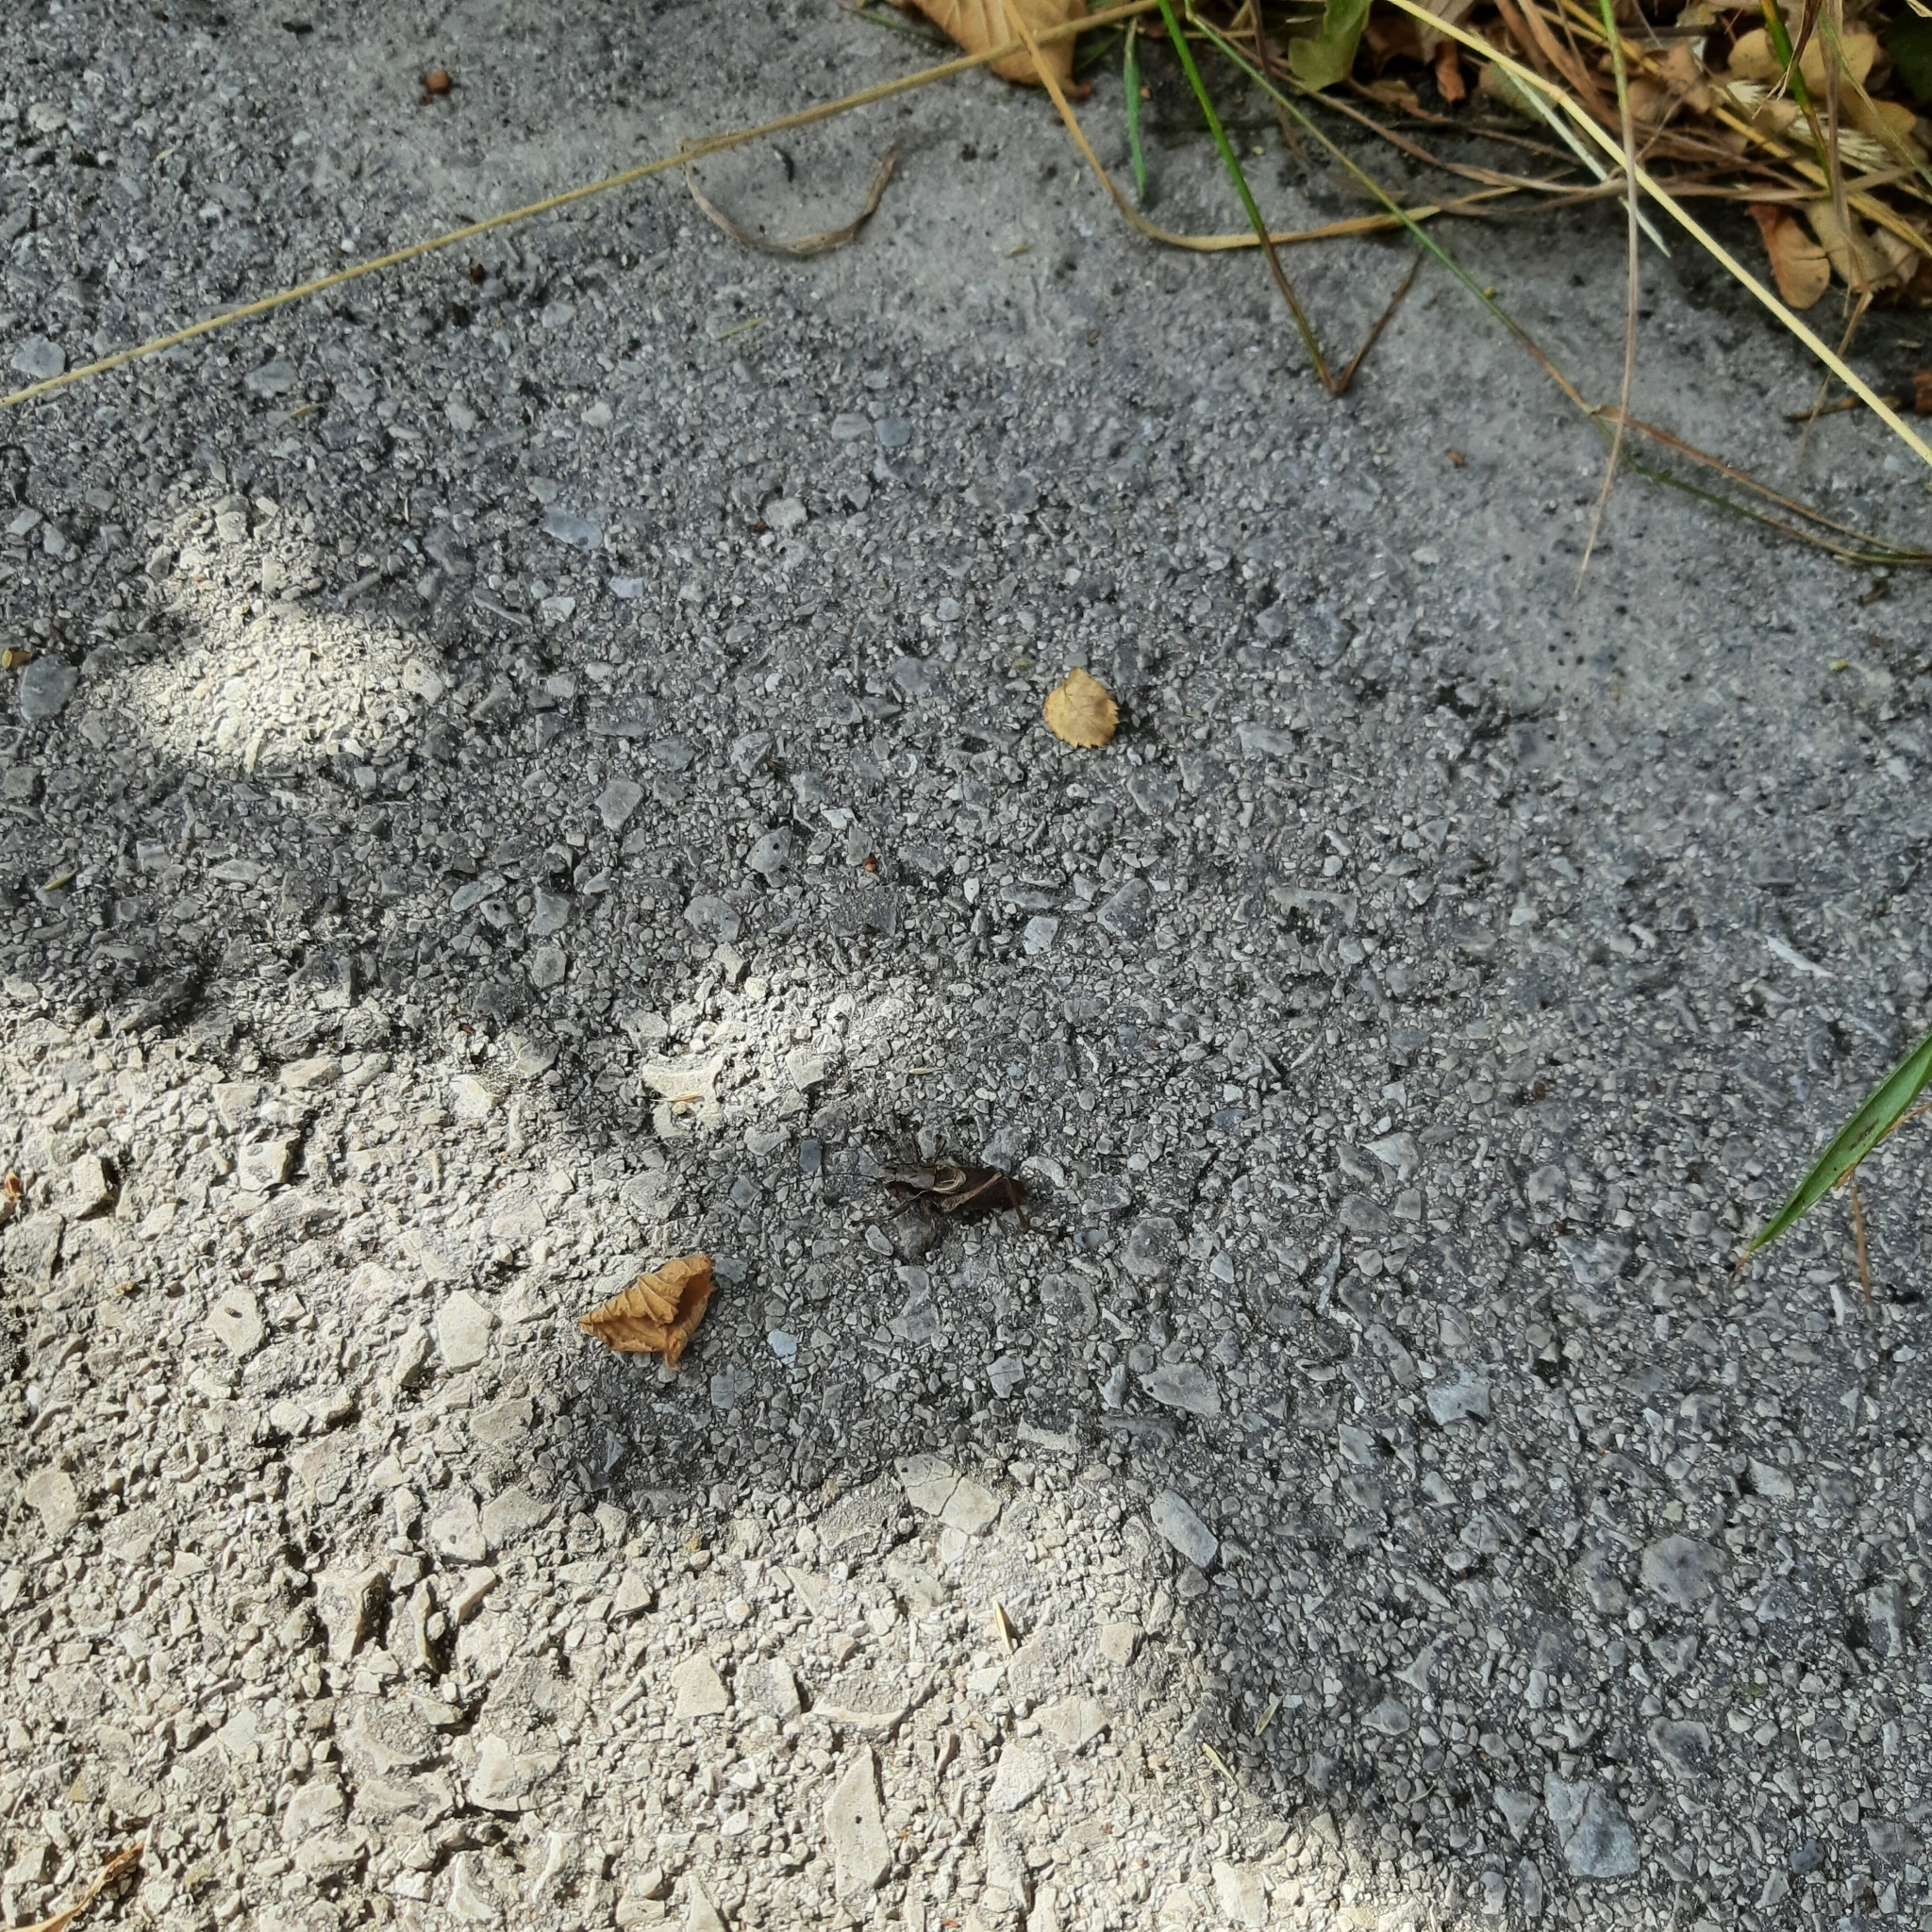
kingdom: Animalia
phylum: Arthropoda
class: Insecta
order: Orthoptera
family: Tettigoniidae
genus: Pholidoptera
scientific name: Pholidoptera griseoaptera
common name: Dark bush-cricket
